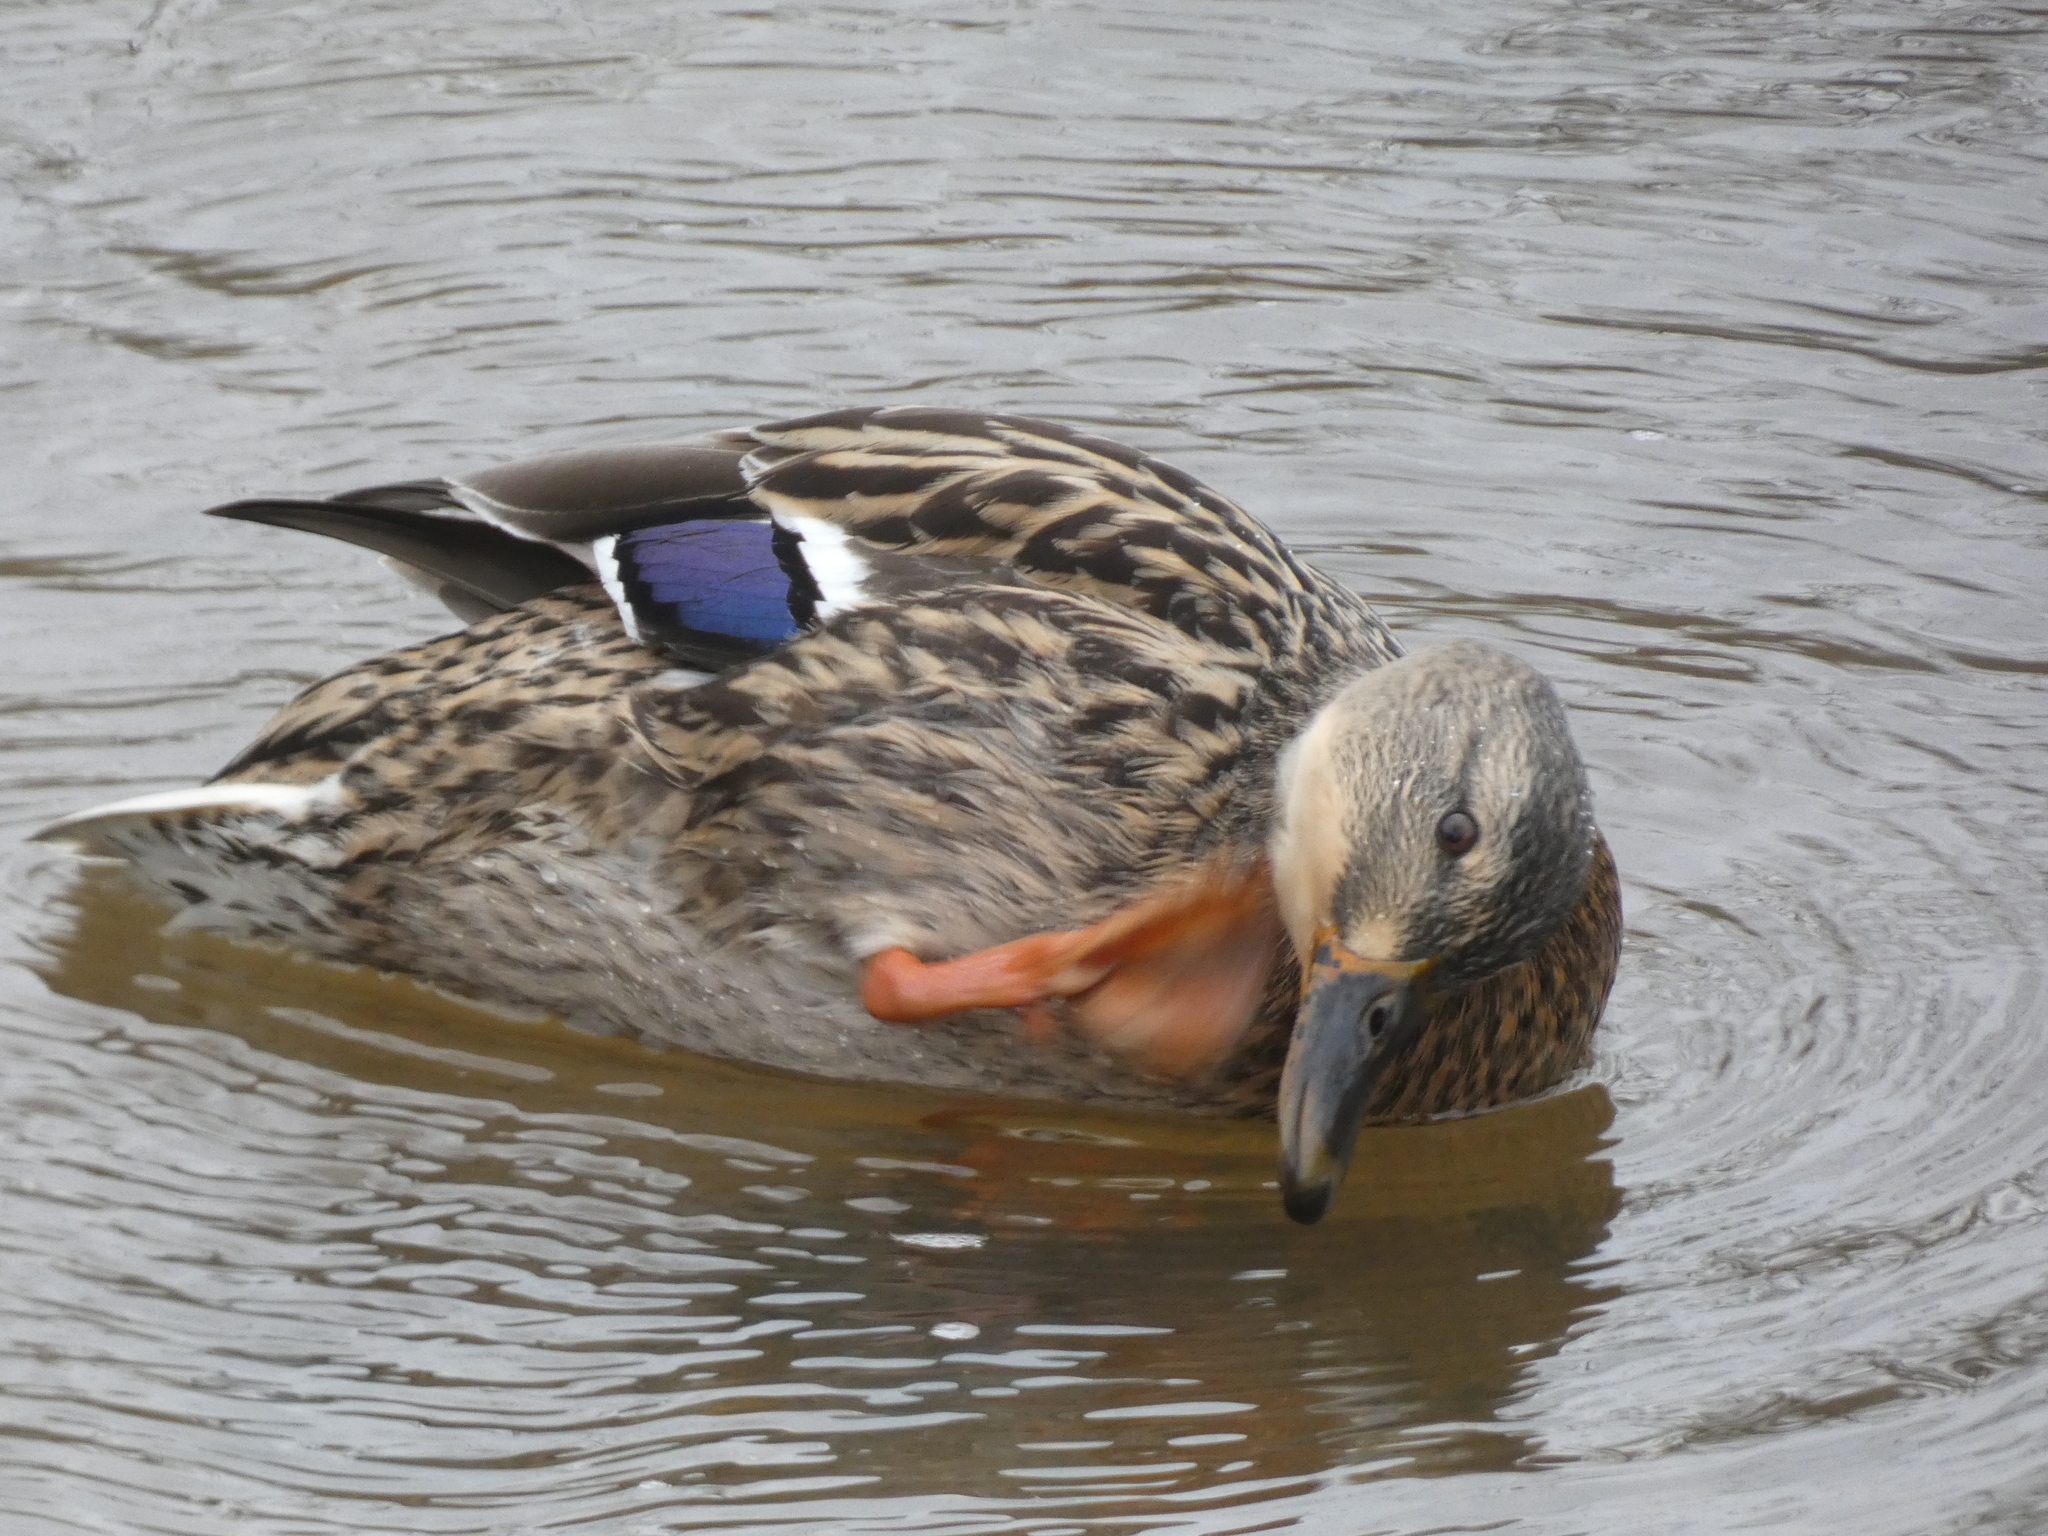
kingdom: Animalia
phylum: Chordata
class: Aves
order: Anseriformes
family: Anatidae
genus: Anas
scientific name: Anas platyrhynchos
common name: Mallard
